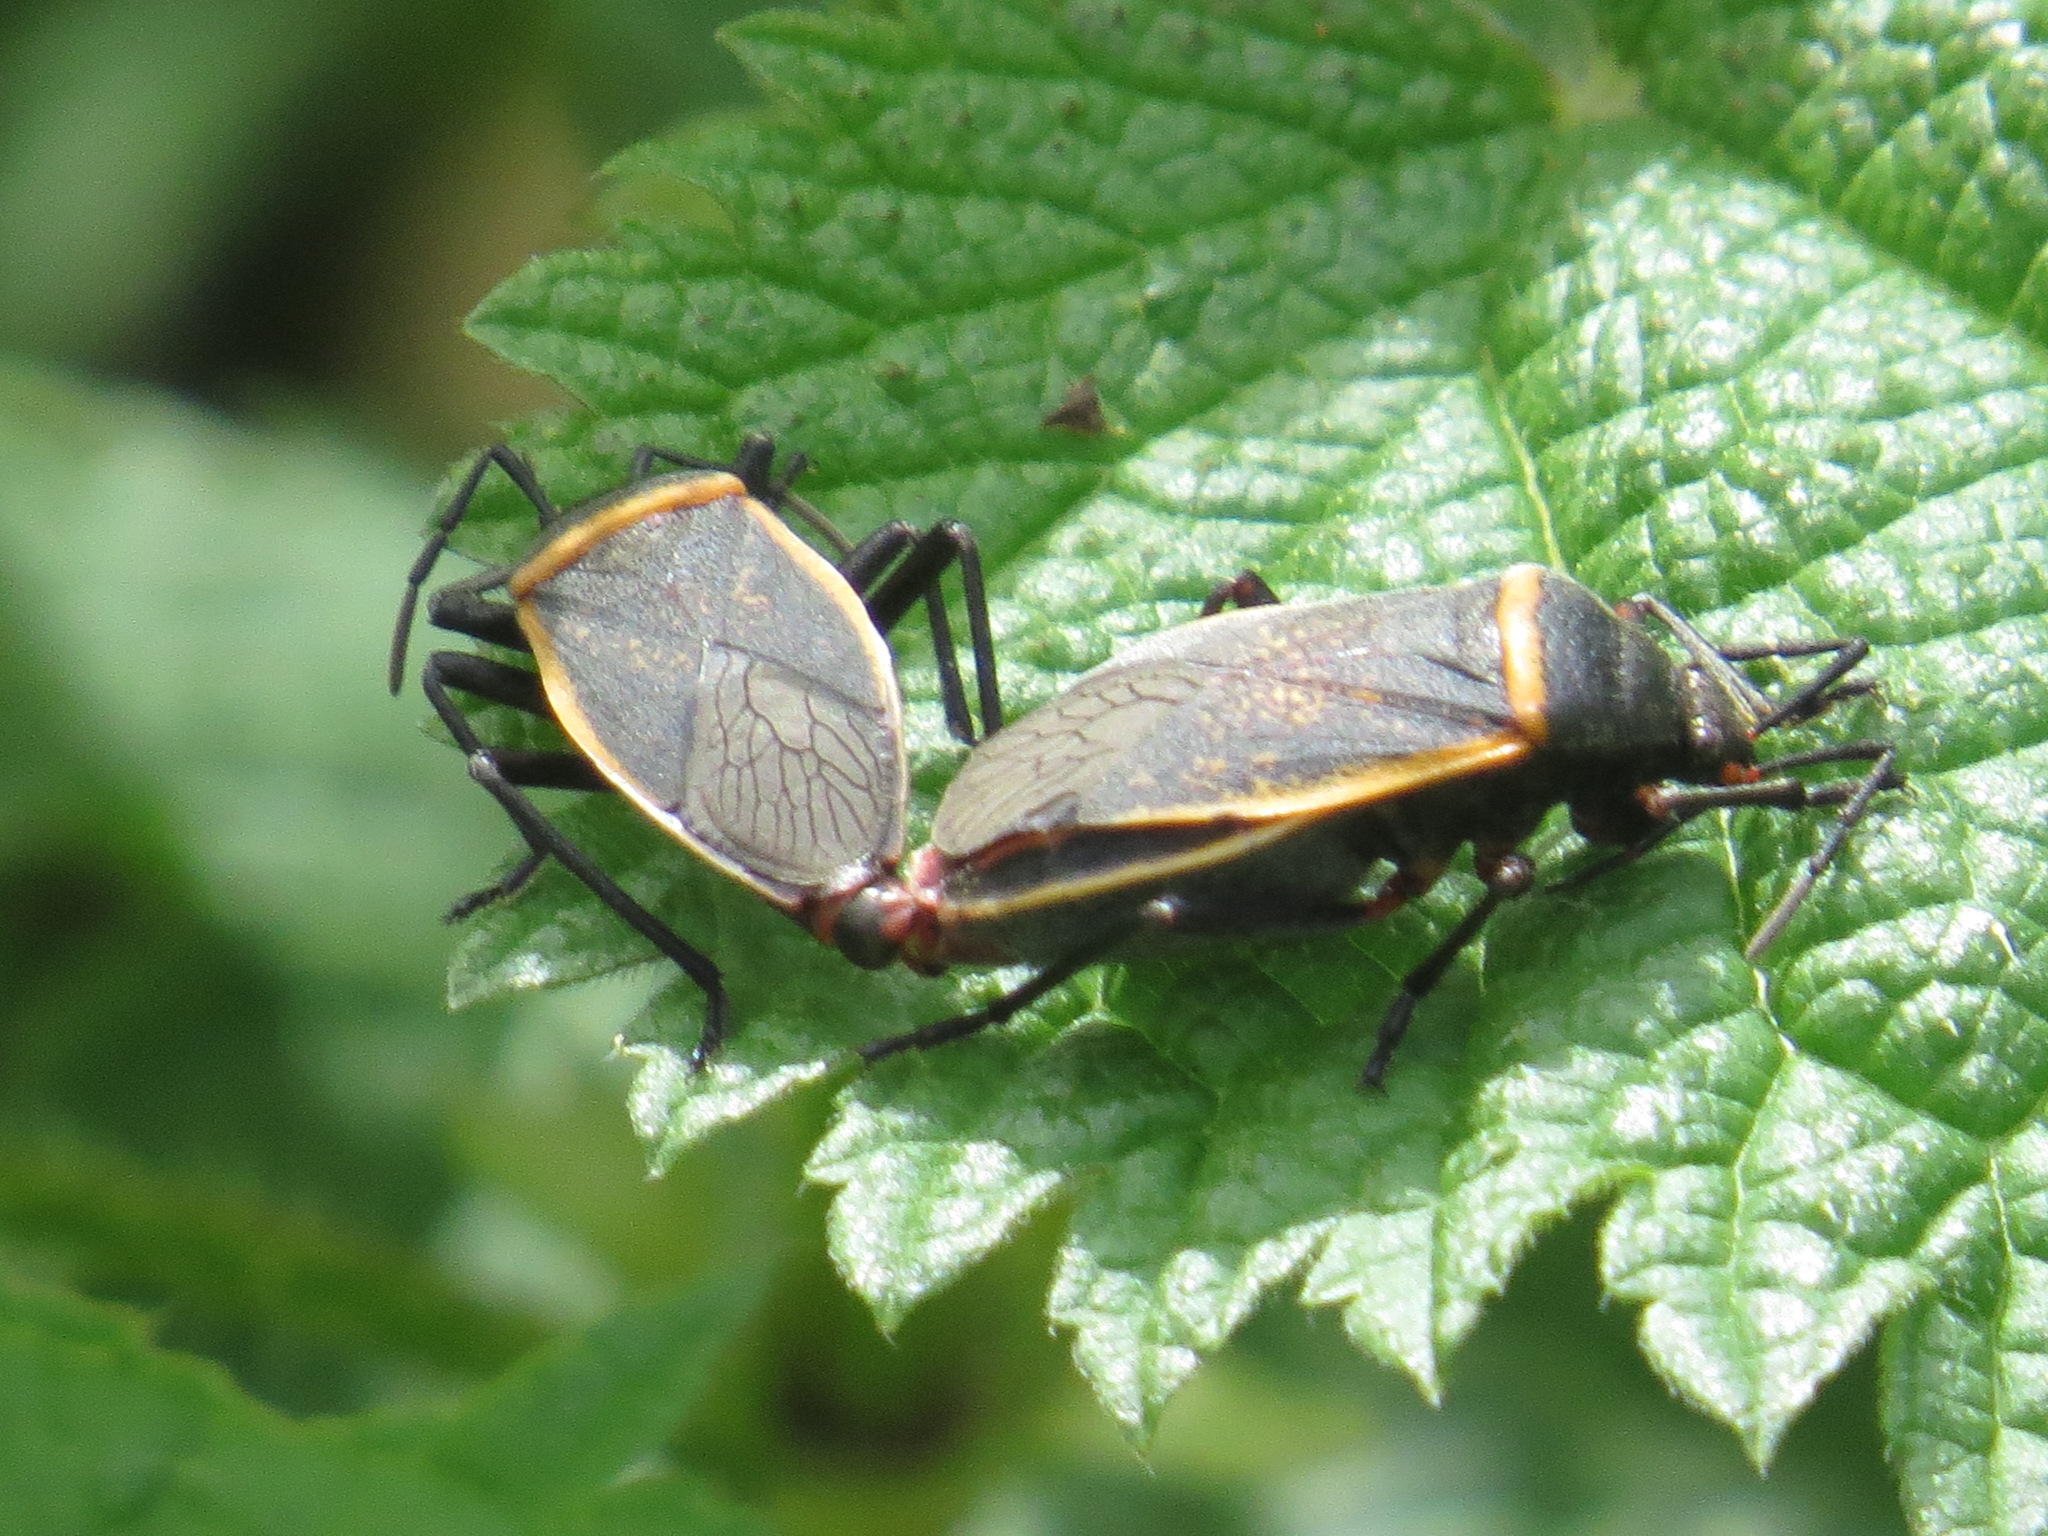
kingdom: Animalia
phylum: Arthropoda
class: Insecta
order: Hemiptera
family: Largidae
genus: Largus
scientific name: Largus californicus
